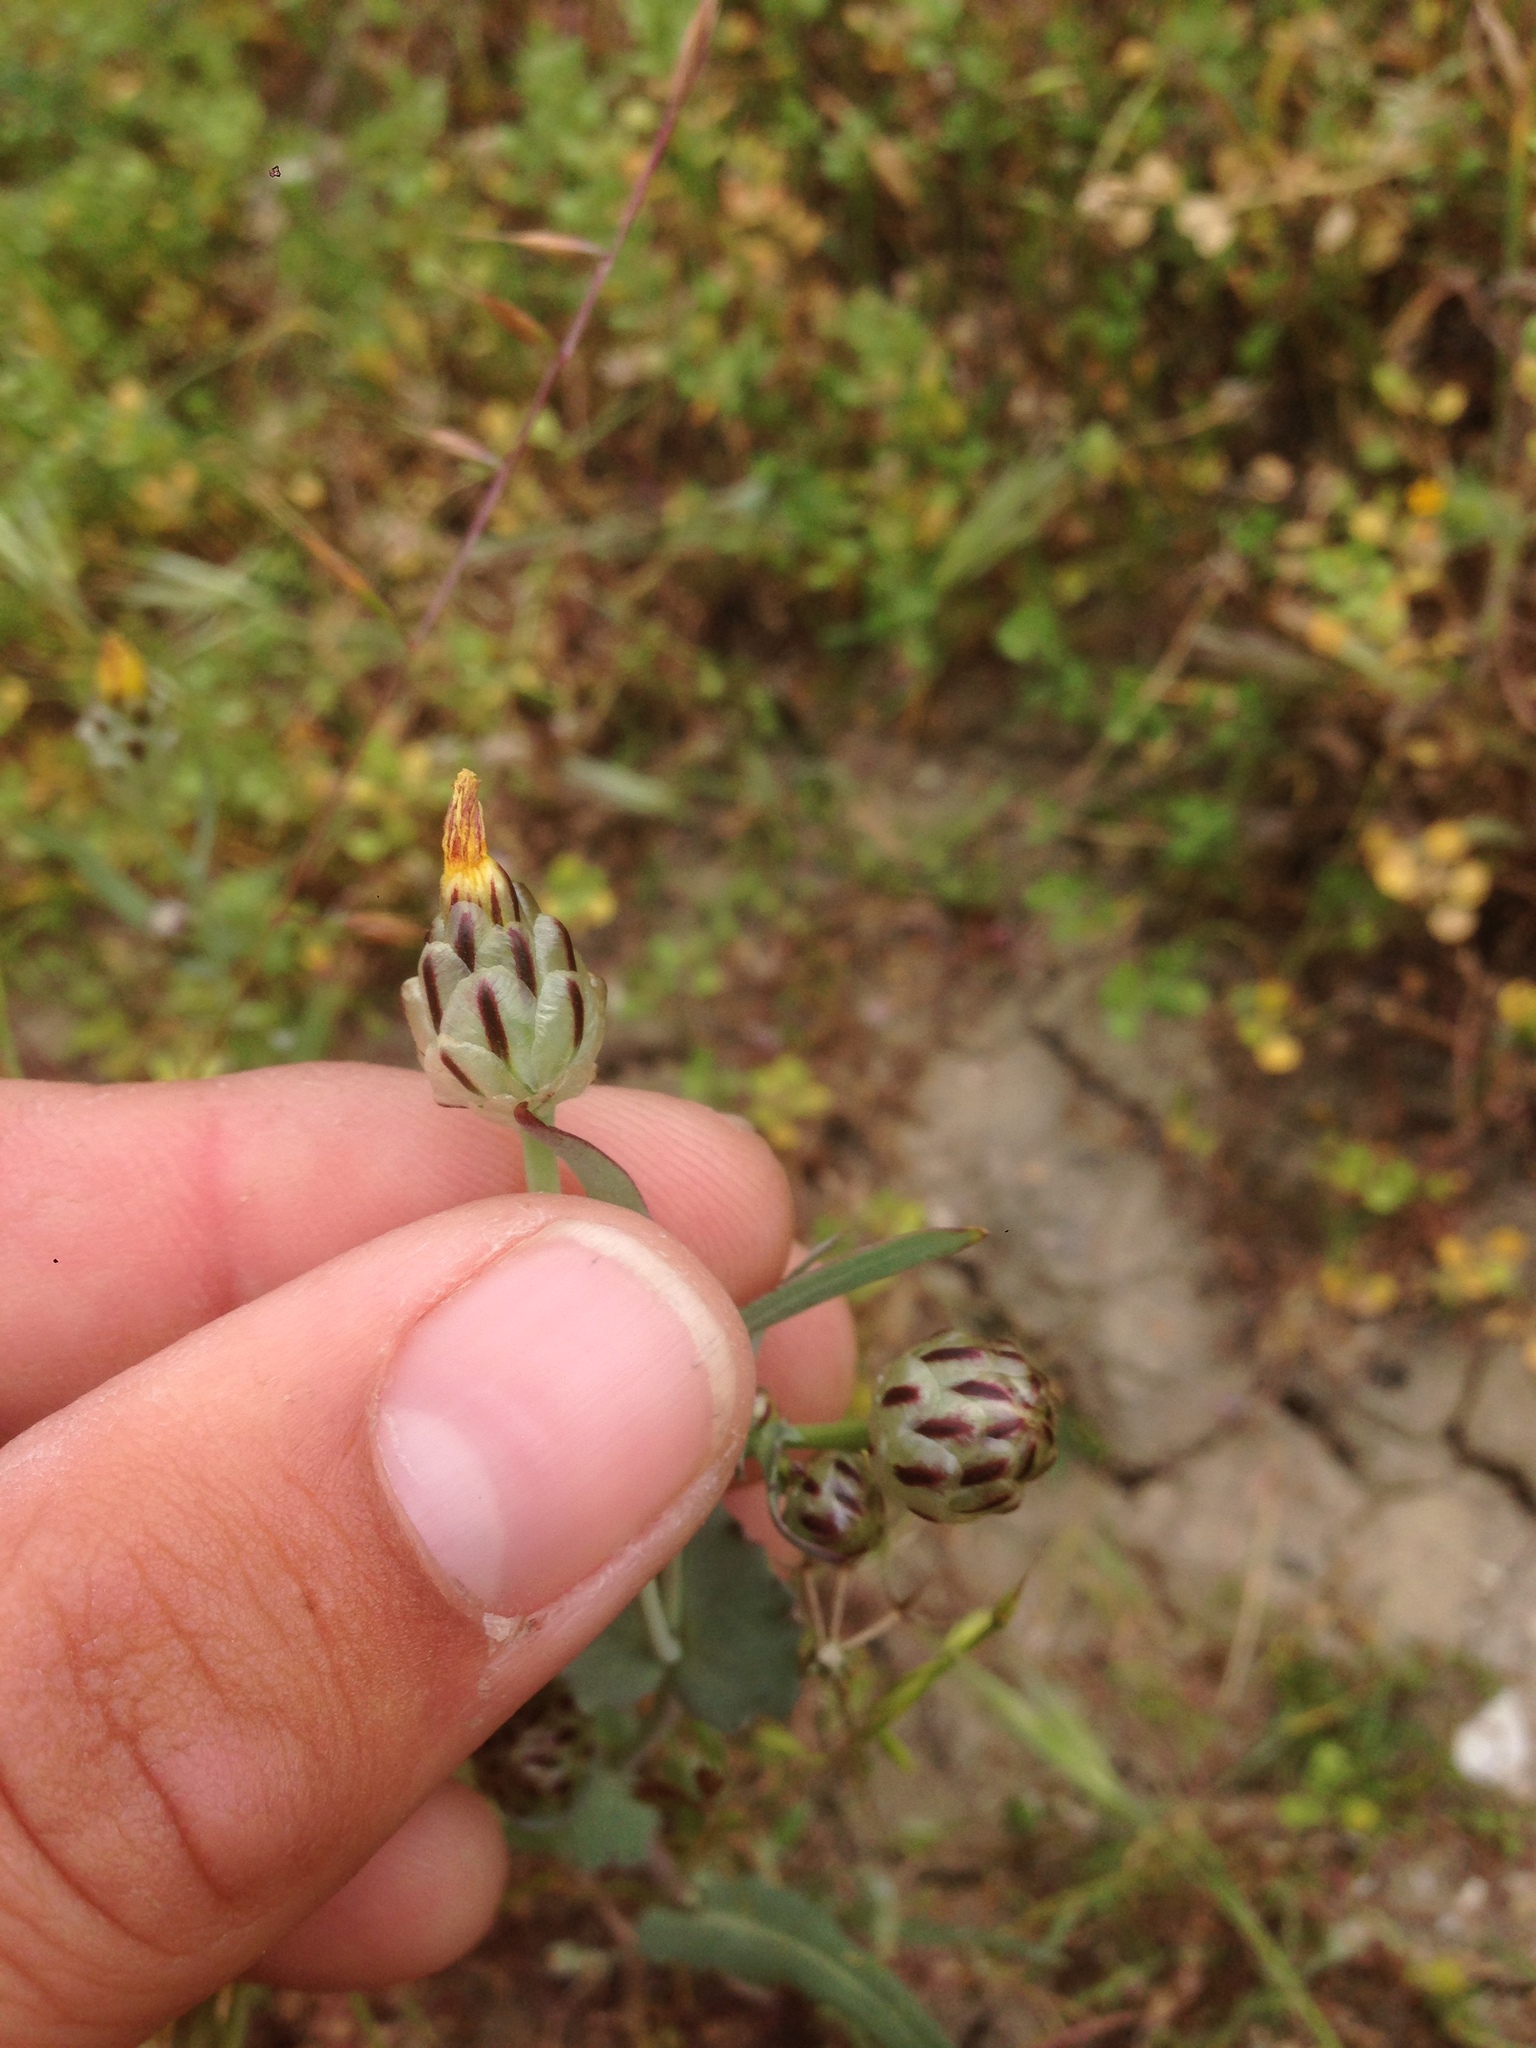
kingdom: Plantae
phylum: Tracheophyta
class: Magnoliopsida
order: Asterales
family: Asteraceae
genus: Malacothrix
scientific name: Malacothrix coulteri
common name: Snake's-head
